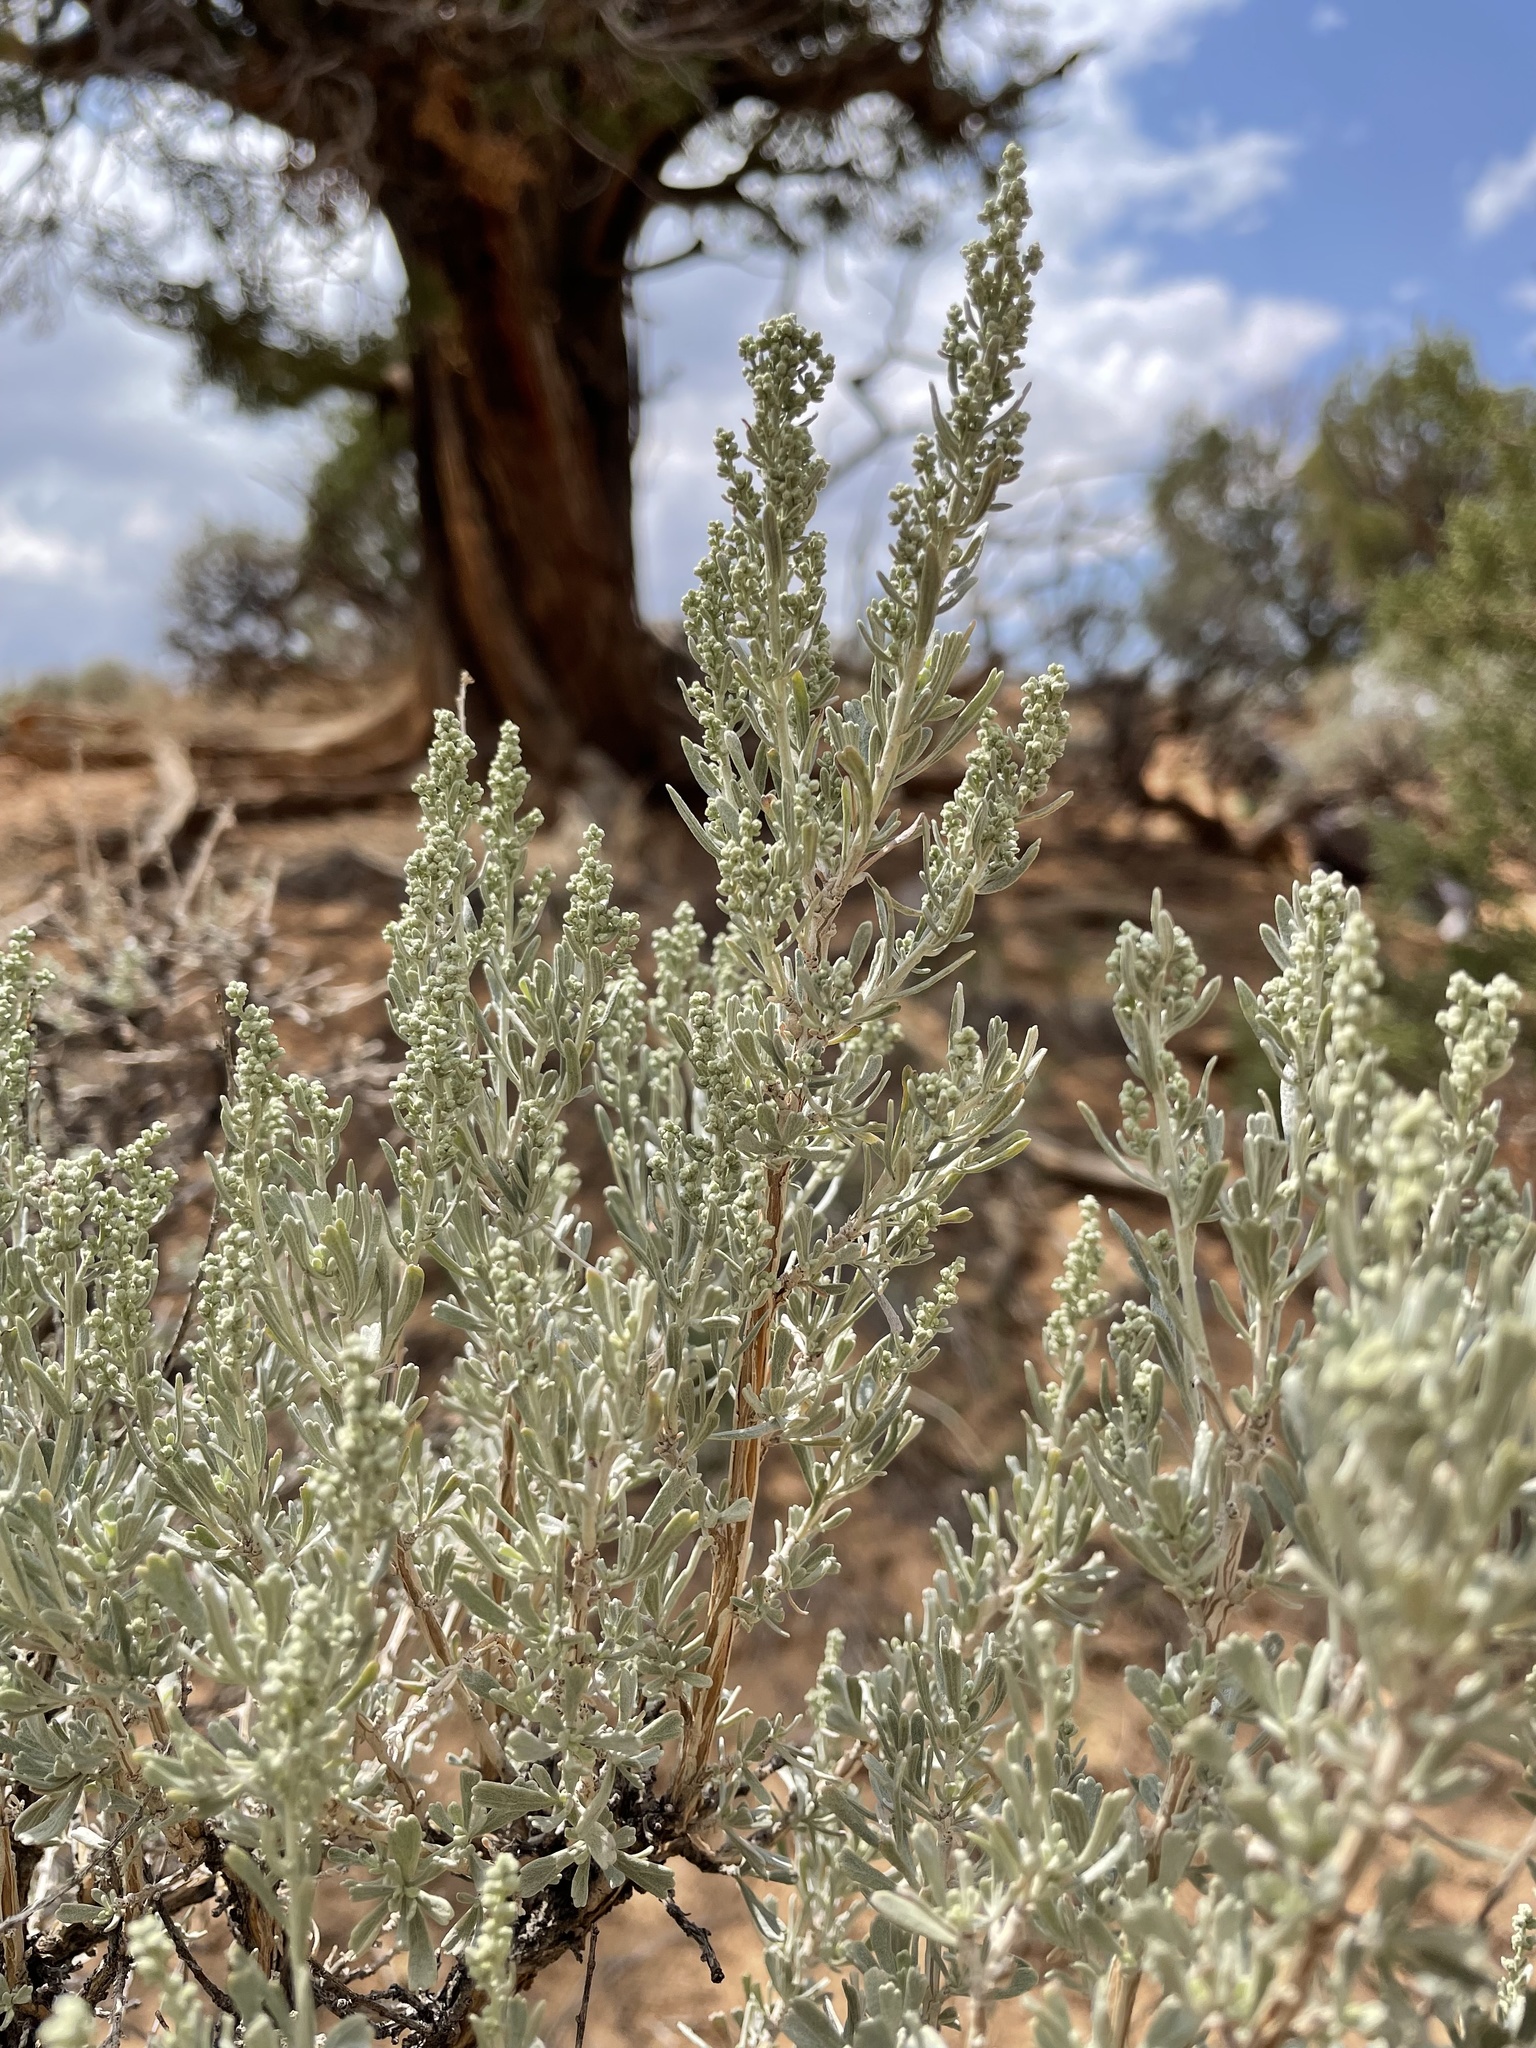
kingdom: Plantae
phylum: Tracheophyta
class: Magnoliopsida
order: Asterales
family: Asteraceae
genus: Artemisia
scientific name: Artemisia tridentata
